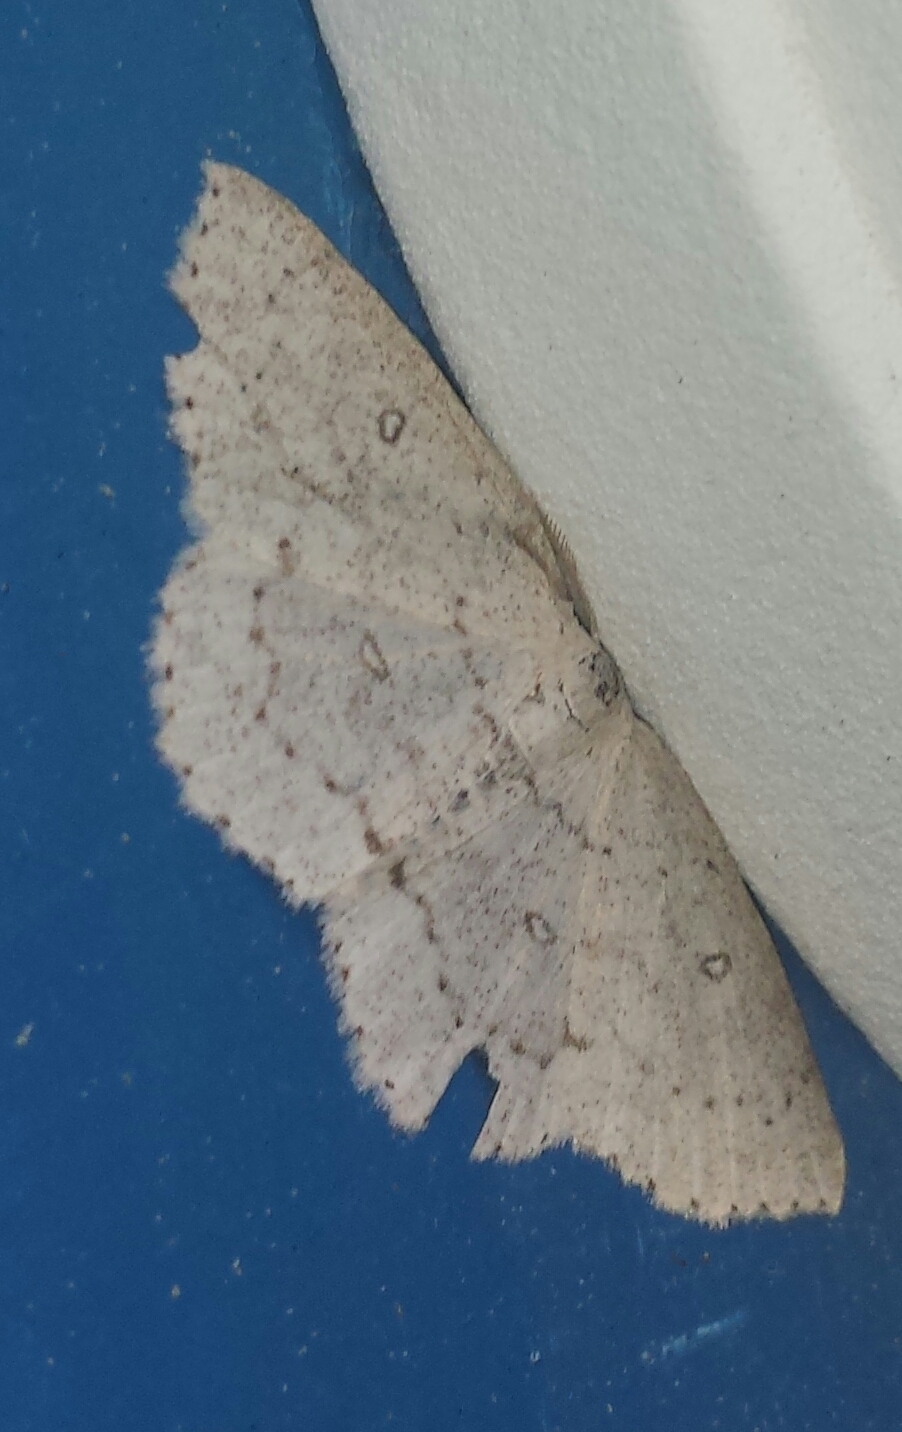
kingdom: Animalia
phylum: Arthropoda
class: Insecta
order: Lepidoptera
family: Geometridae
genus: Cyclophora
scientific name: Cyclophora pendulinaria
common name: Sweet fern geometer
